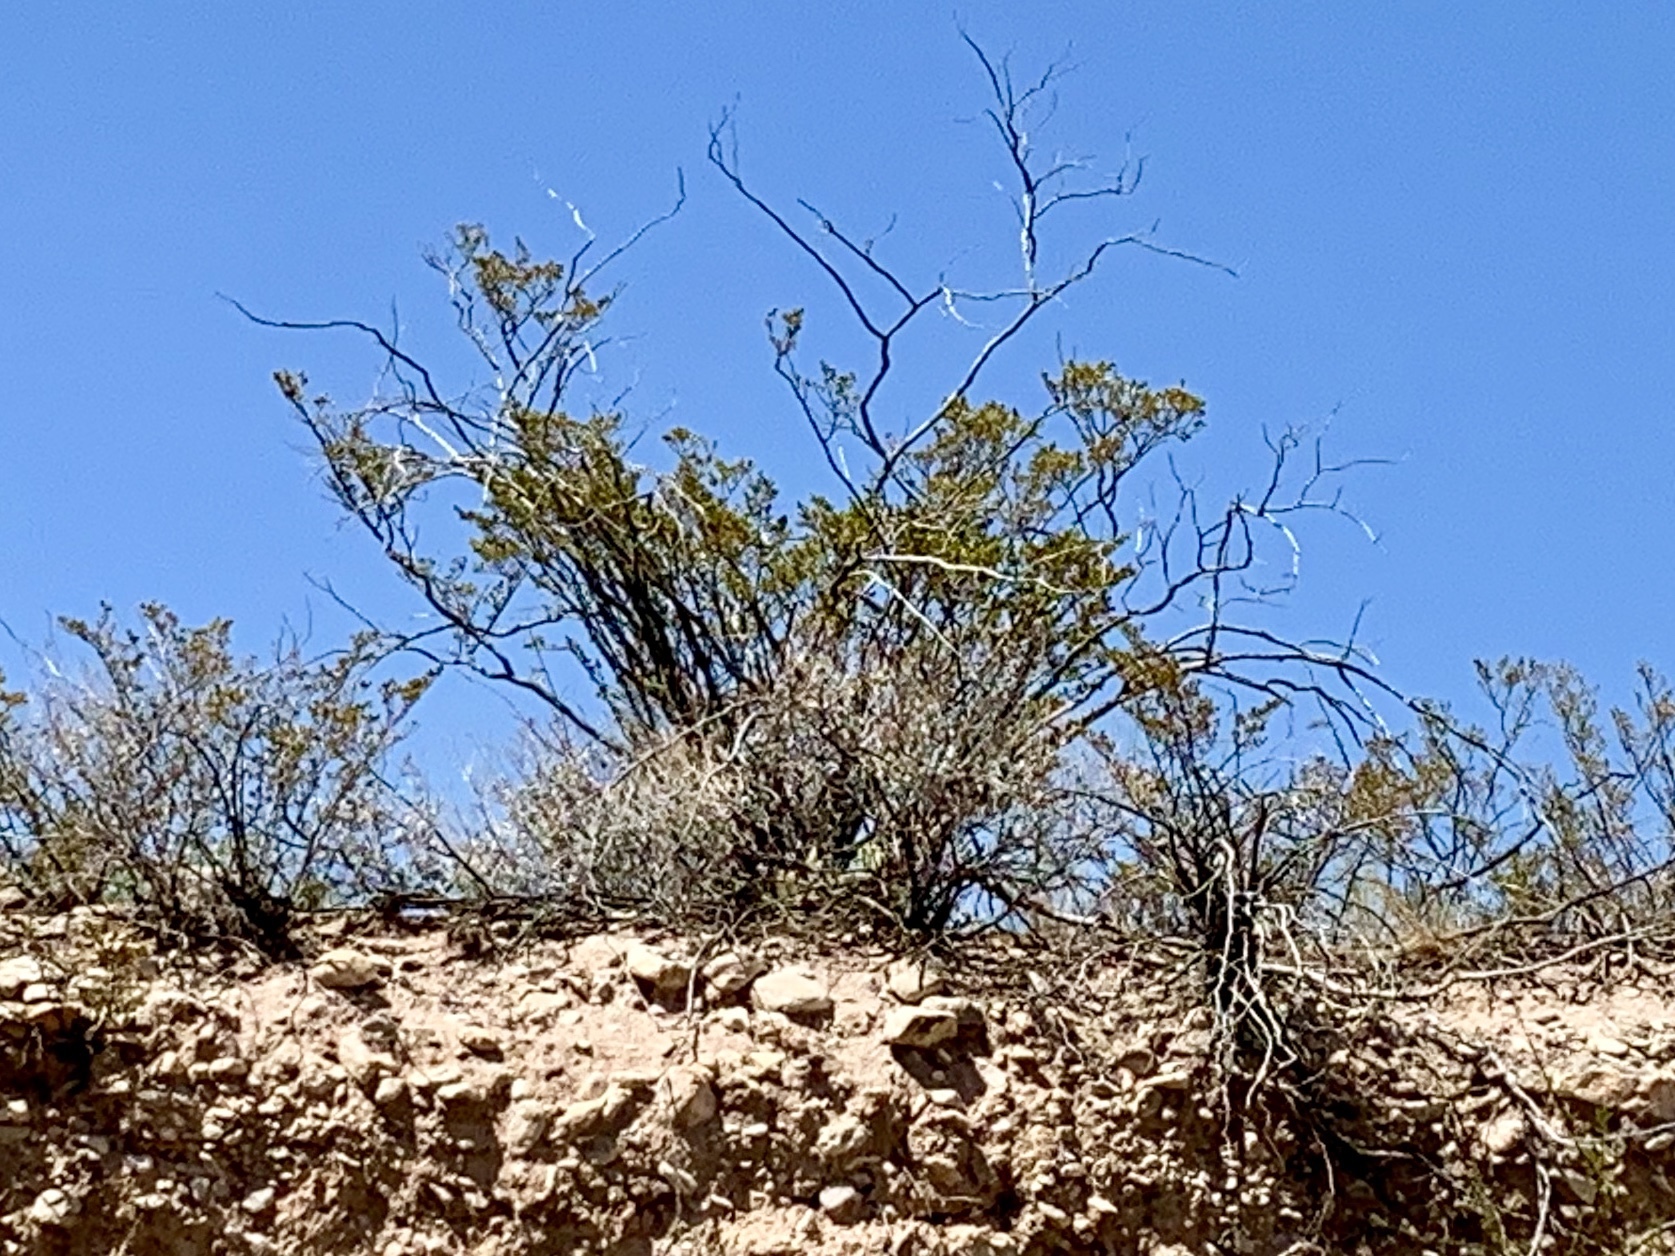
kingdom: Plantae
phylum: Tracheophyta
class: Magnoliopsida
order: Zygophyllales
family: Zygophyllaceae
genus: Larrea
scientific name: Larrea tridentata
